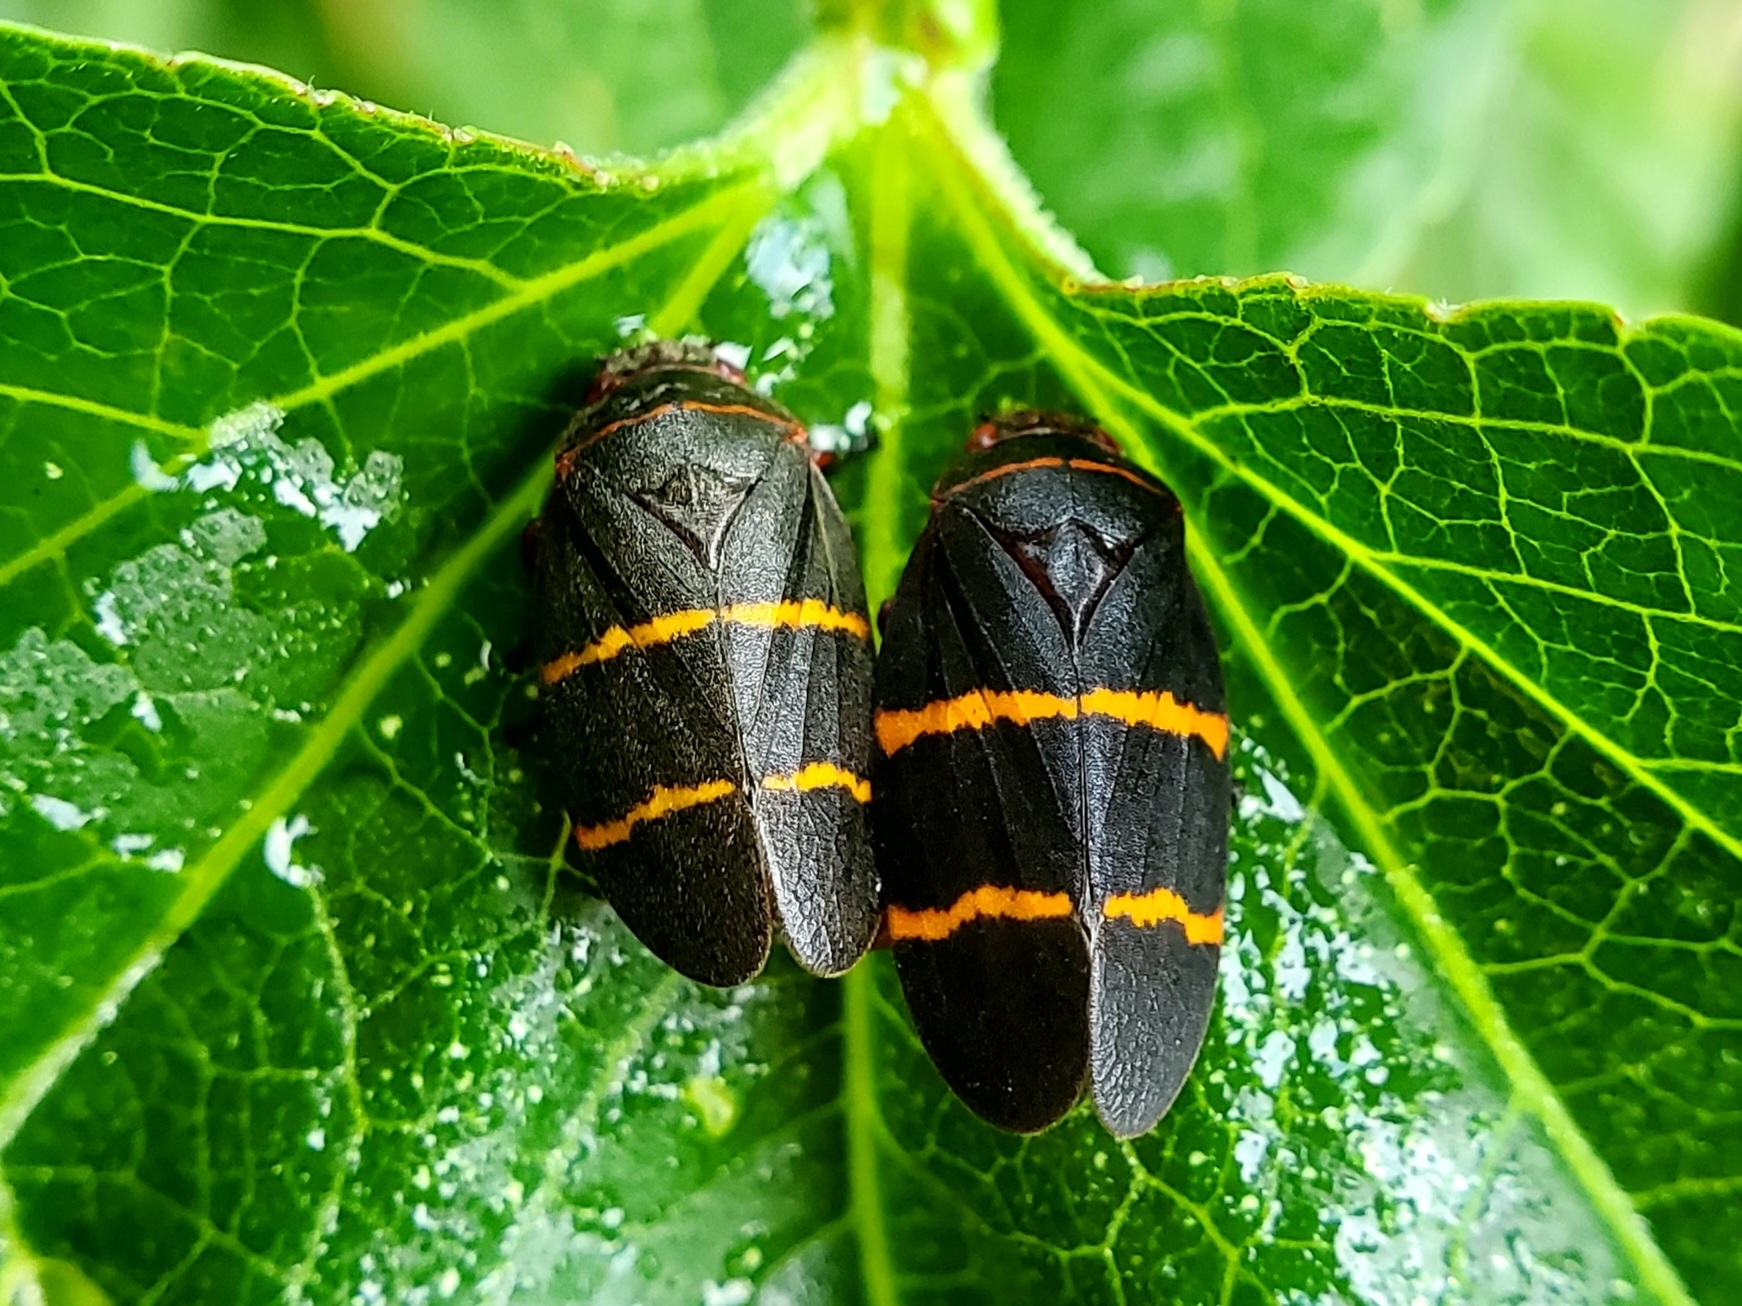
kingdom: Animalia
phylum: Arthropoda
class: Insecta
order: Hemiptera
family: Cercopidae
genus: Prosapia
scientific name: Prosapia bicincta
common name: Twolined spittlebug
